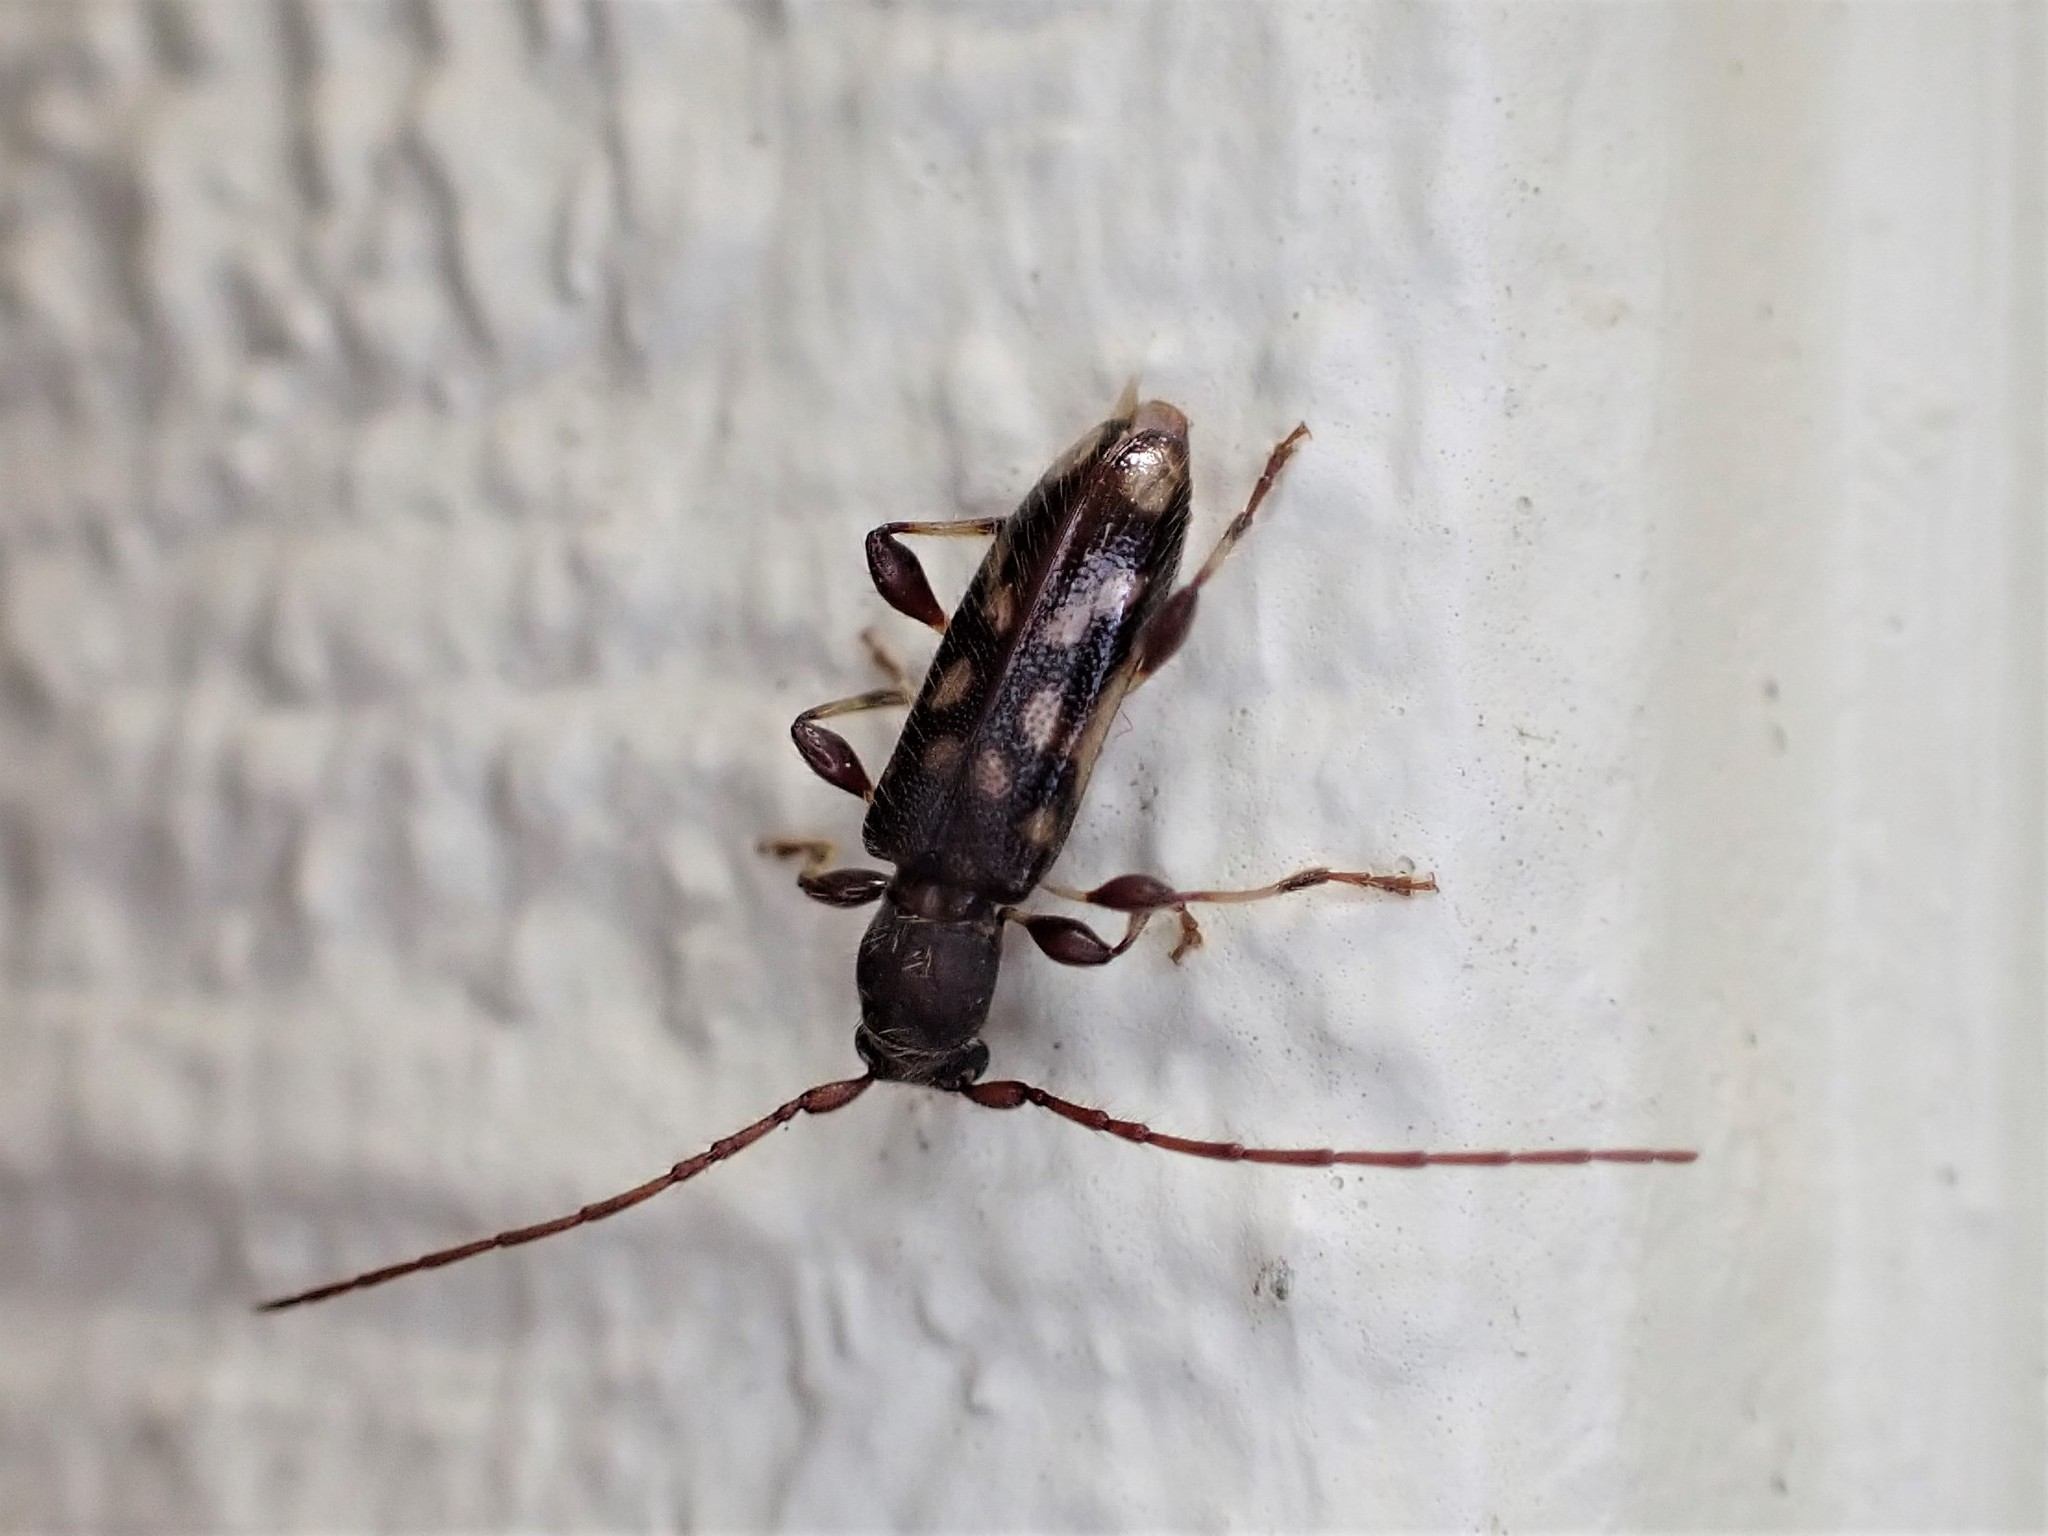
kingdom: Animalia
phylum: Arthropoda
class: Insecta
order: Coleoptera
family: Cerambycidae
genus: Bethelium
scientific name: Bethelium signiferum
